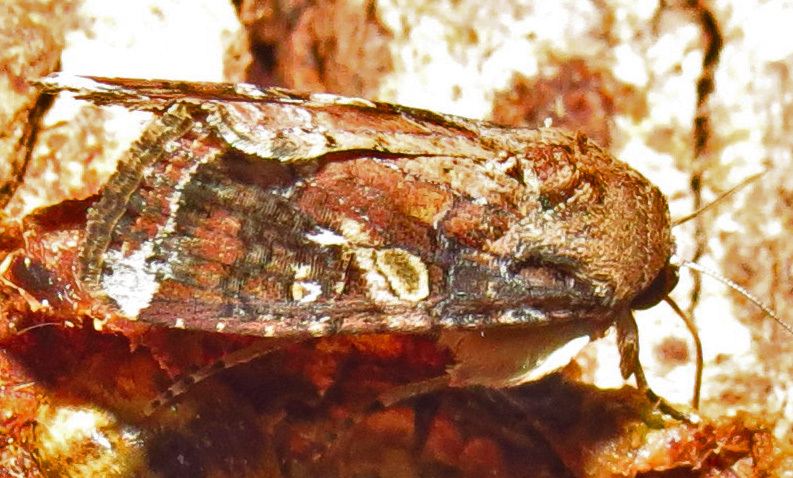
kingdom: Animalia
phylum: Arthropoda
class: Insecta
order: Lepidoptera
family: Noctuidae
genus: Spodoptera
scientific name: Spodoptera frugiperda
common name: Fall armyworm
